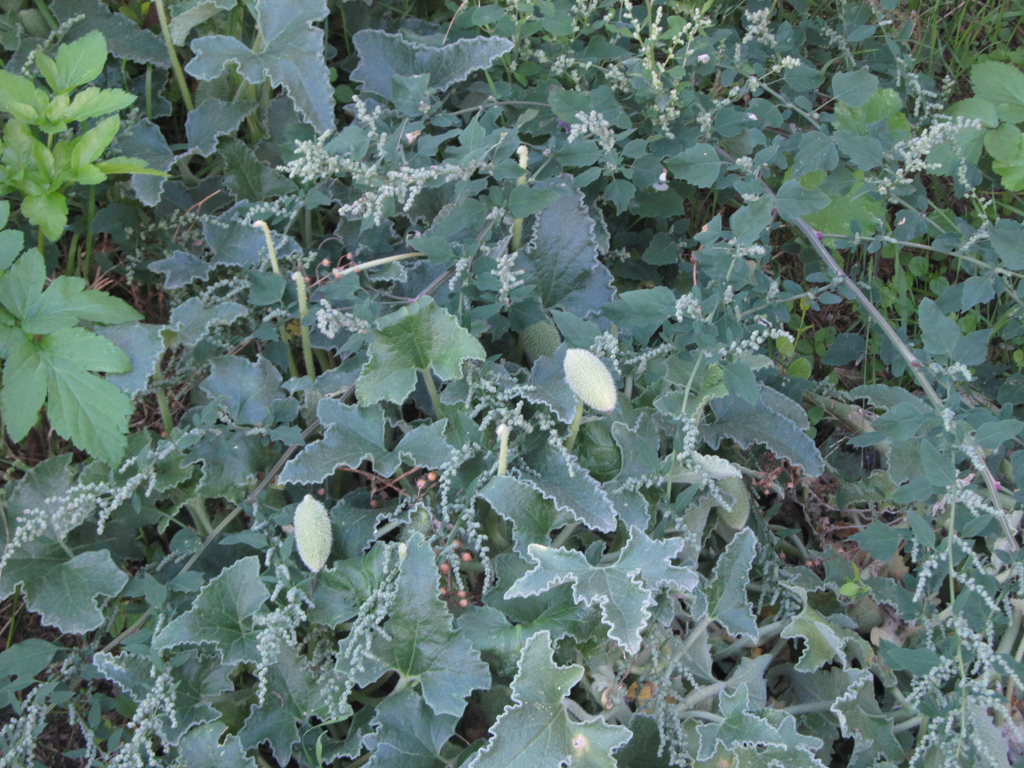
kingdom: Plantae
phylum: Tracheophyta
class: Magnoliopsida
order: Cucurbitales
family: Cucurbitaceae
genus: Ecballium
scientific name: Ecballium elaterium
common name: Squirting cucumber
